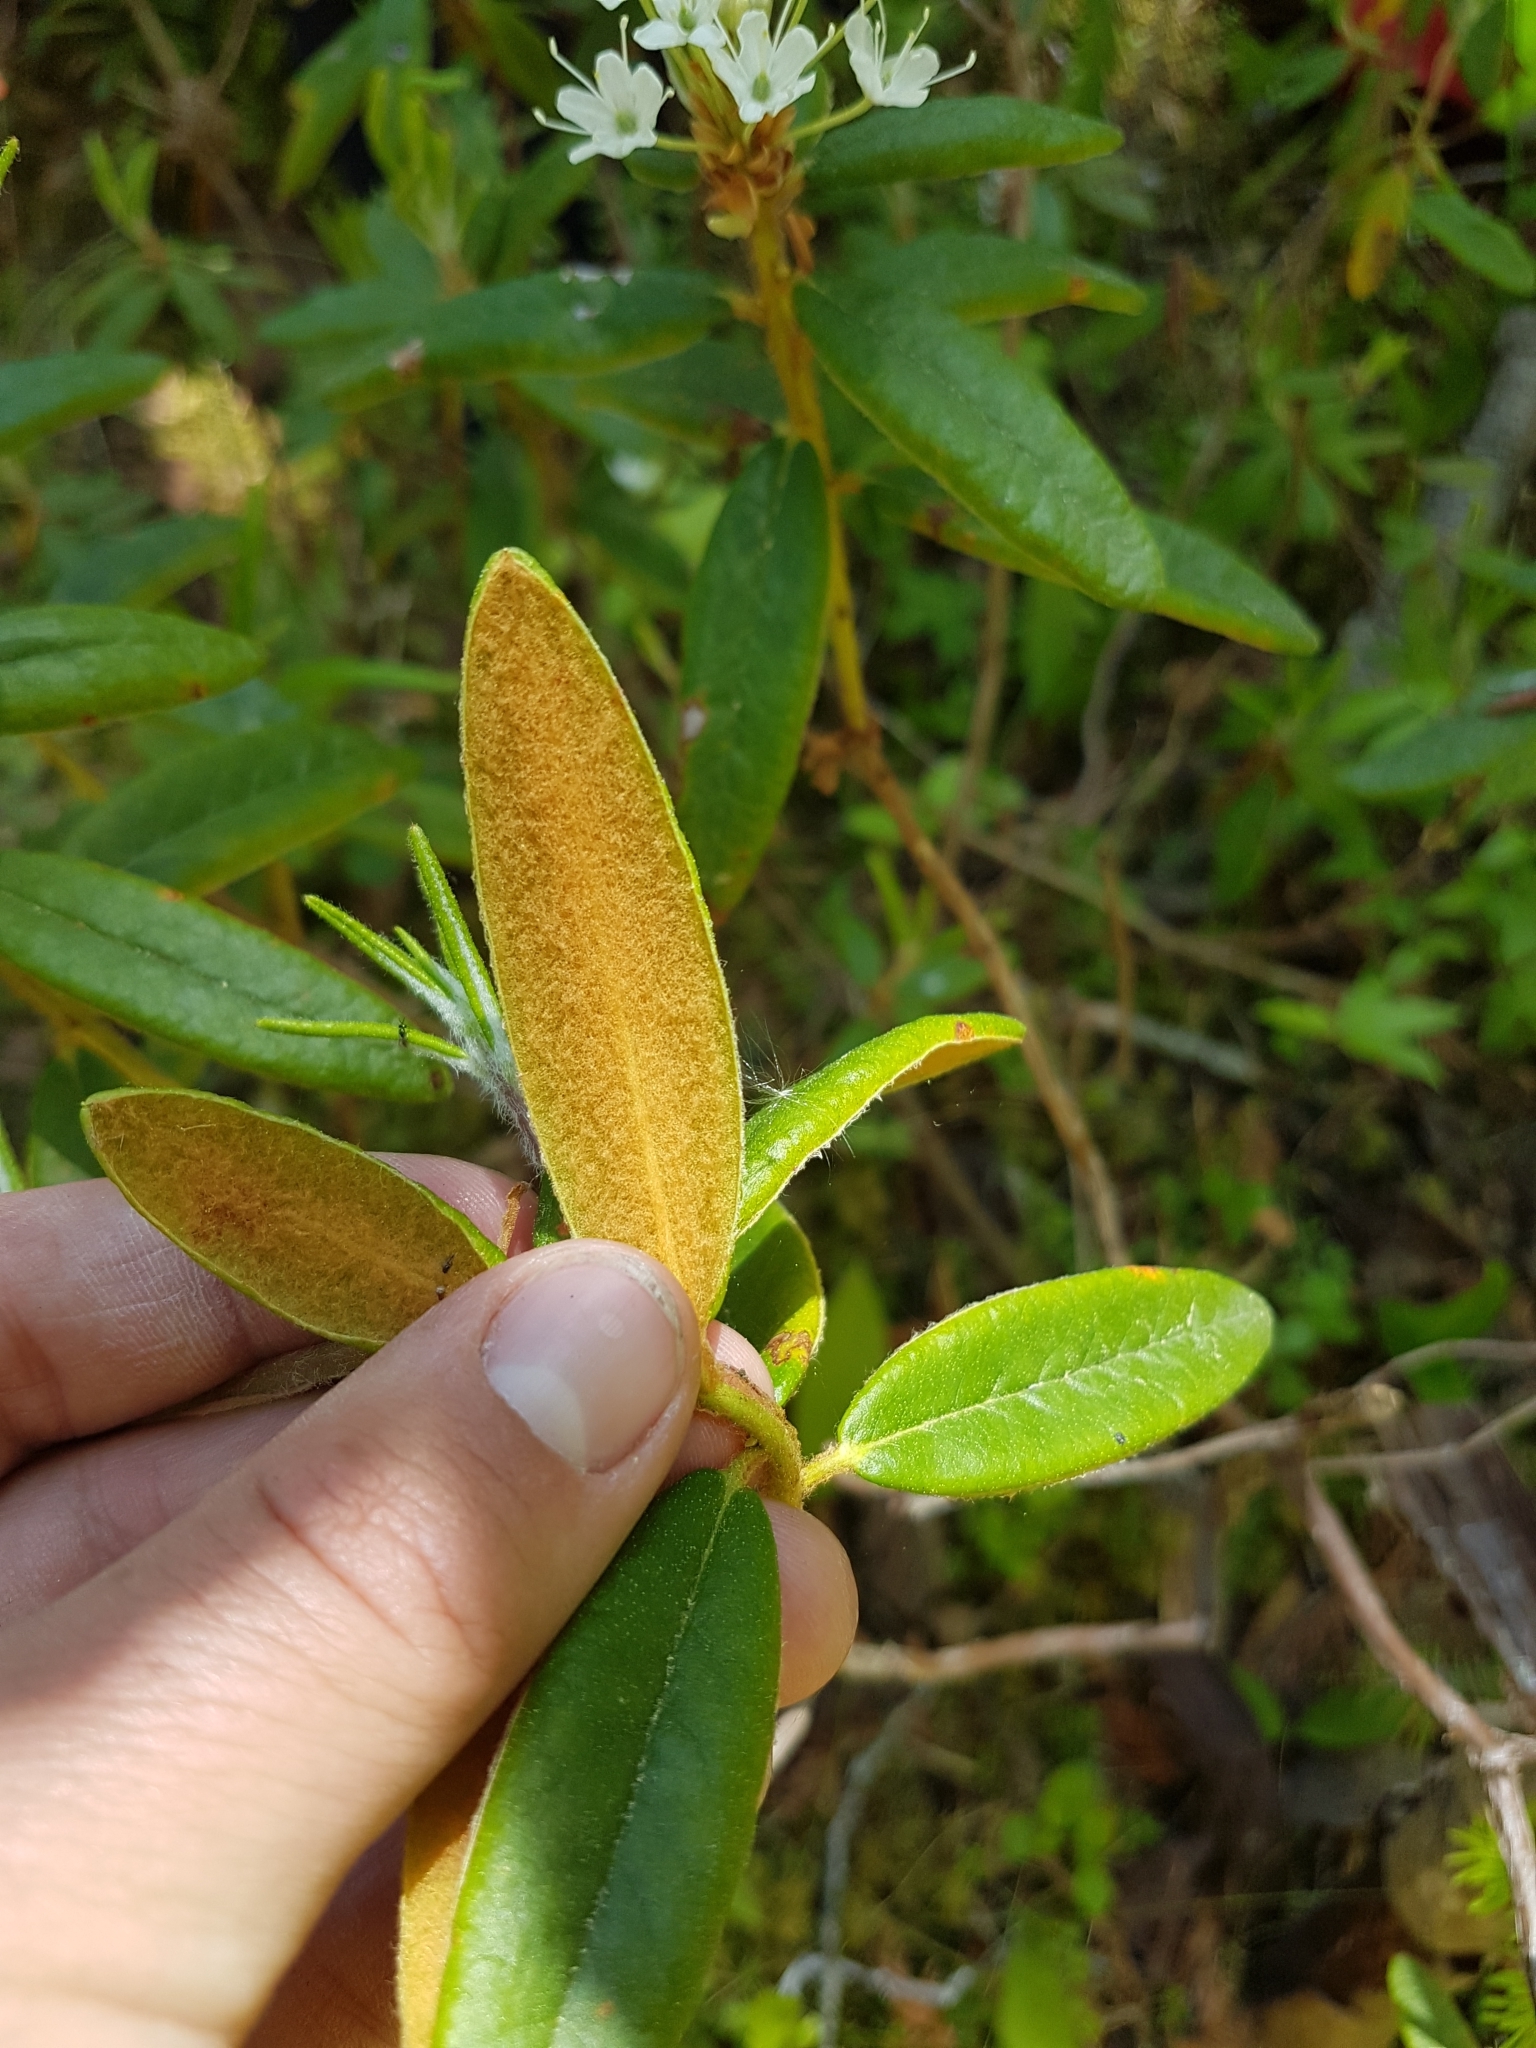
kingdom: Plantae
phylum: Tracheophyta
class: Magnoliopsida
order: Ericales
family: Ericaceae
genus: Rhododendron
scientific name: Rhododendron groenlandicum
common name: Bog labrador tea
